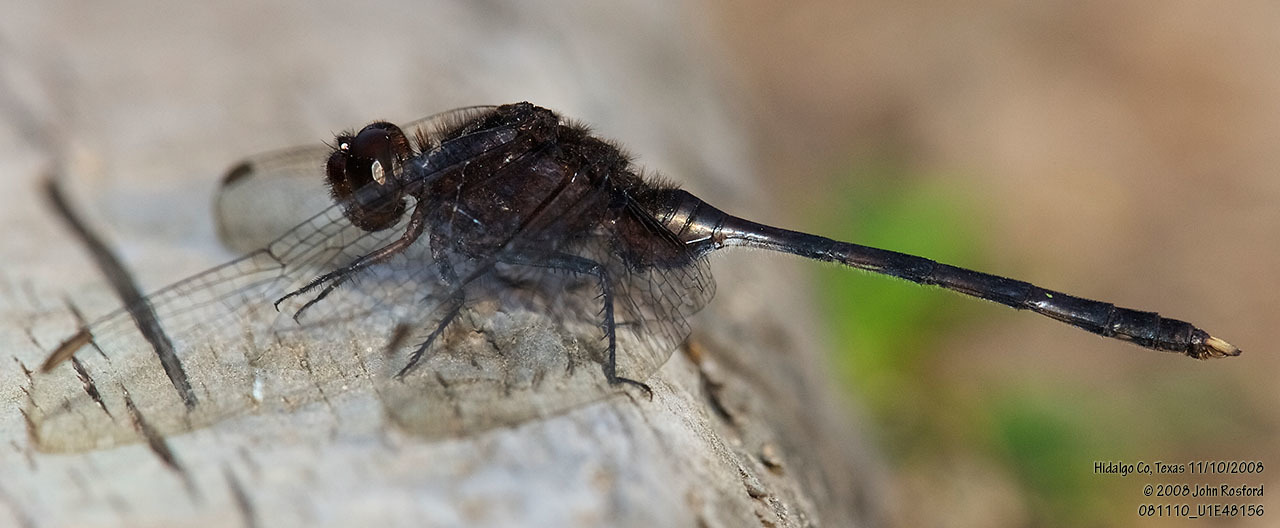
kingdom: Animalia
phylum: Arthropoda
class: Insecta
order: Odonata
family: Libellulidae
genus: Erythemis
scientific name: Erythemis plebeja
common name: Pin-tailed pondhawk
